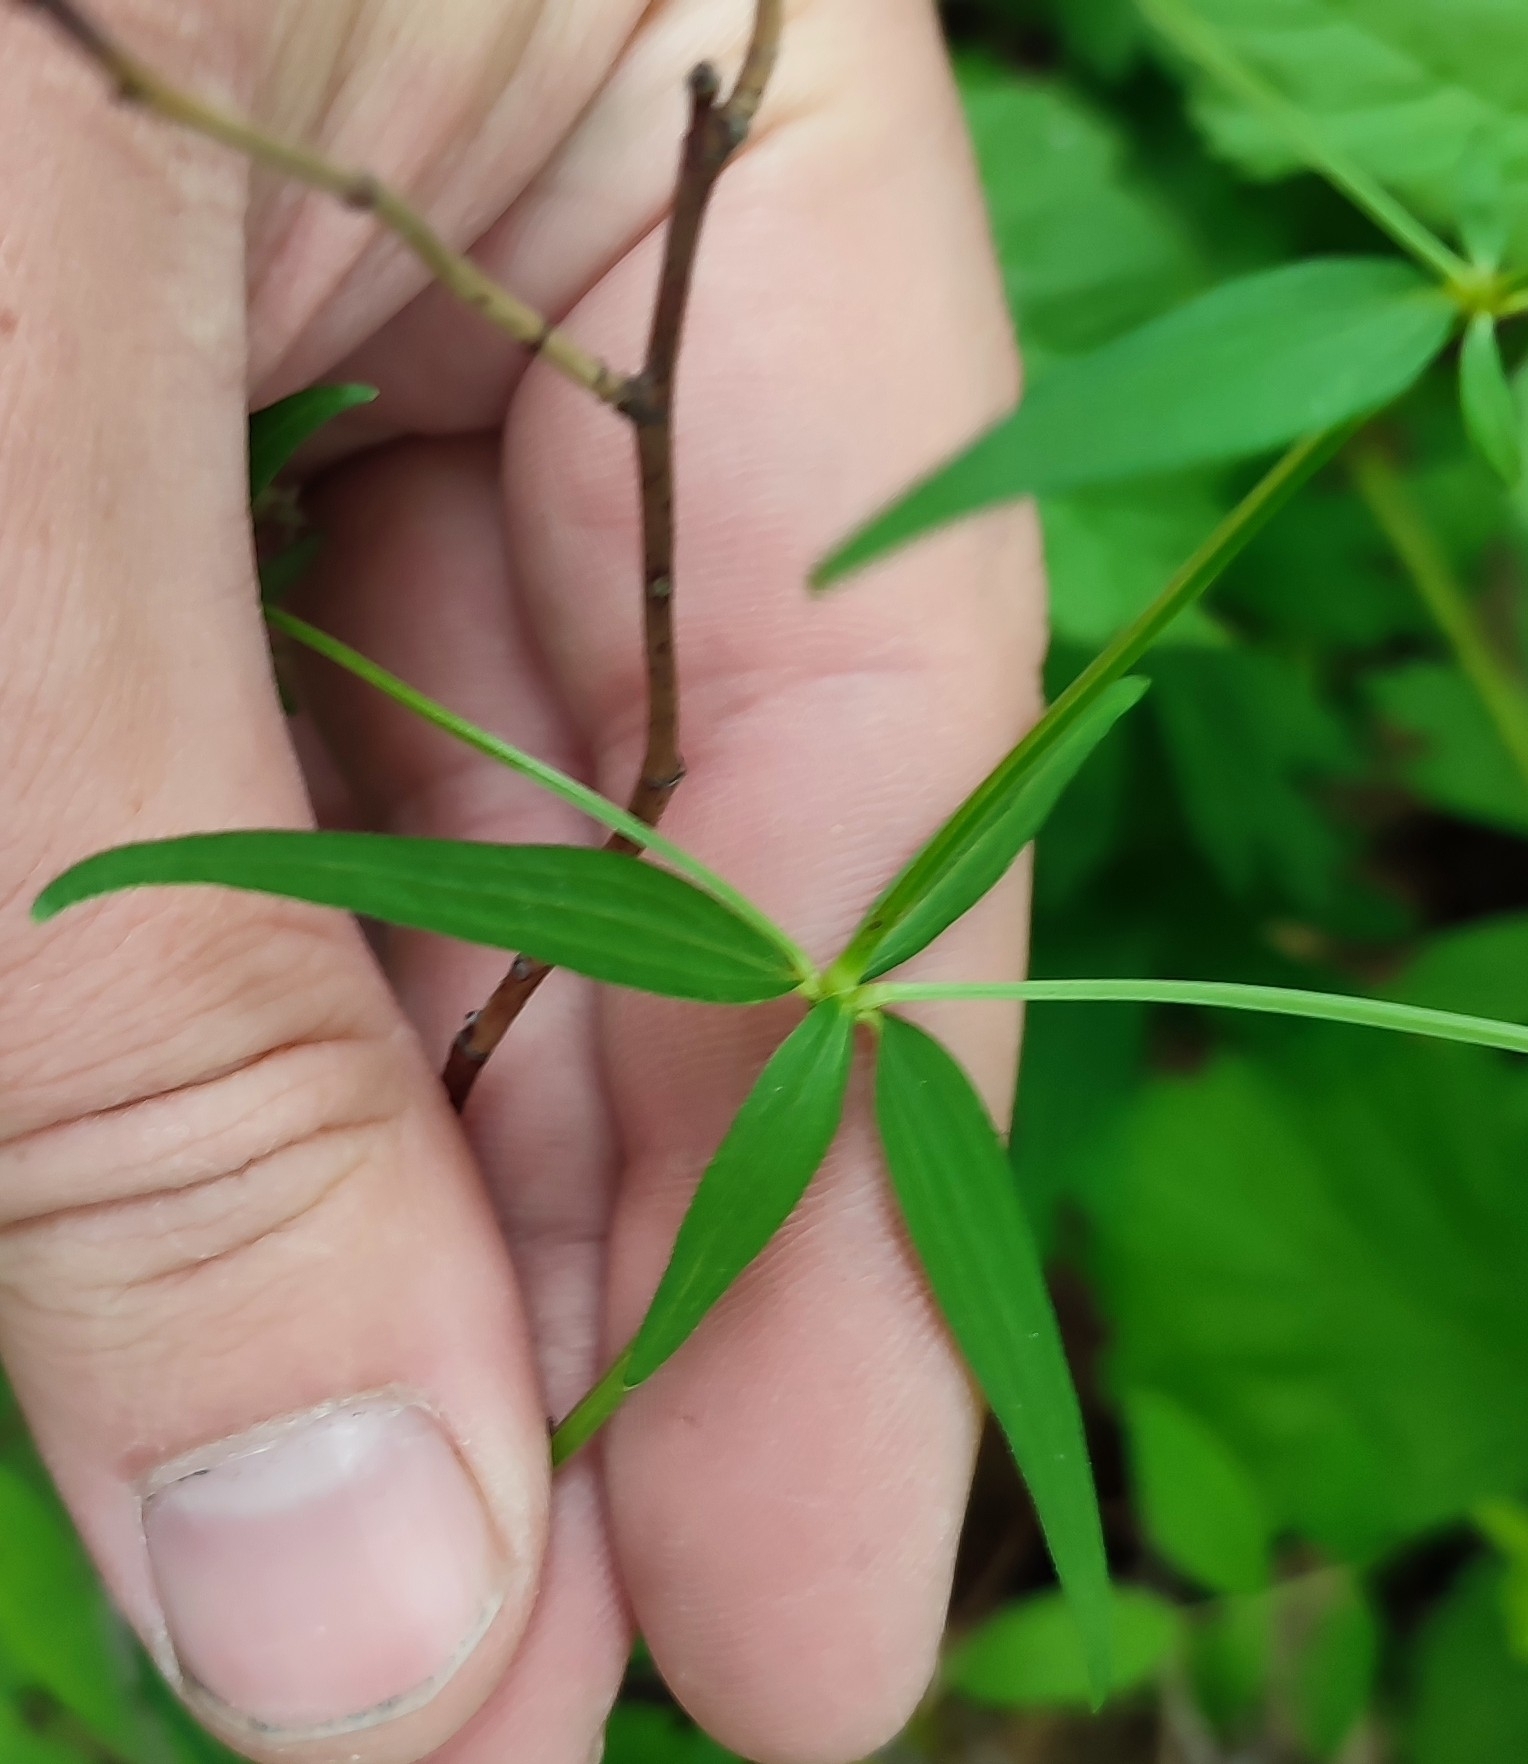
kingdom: Plantae
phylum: Tracheophyta
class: Magnoliopsida
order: Gentianales
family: Rubiaceae
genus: Galium
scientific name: Galium boreale
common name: Northern bedstraw
